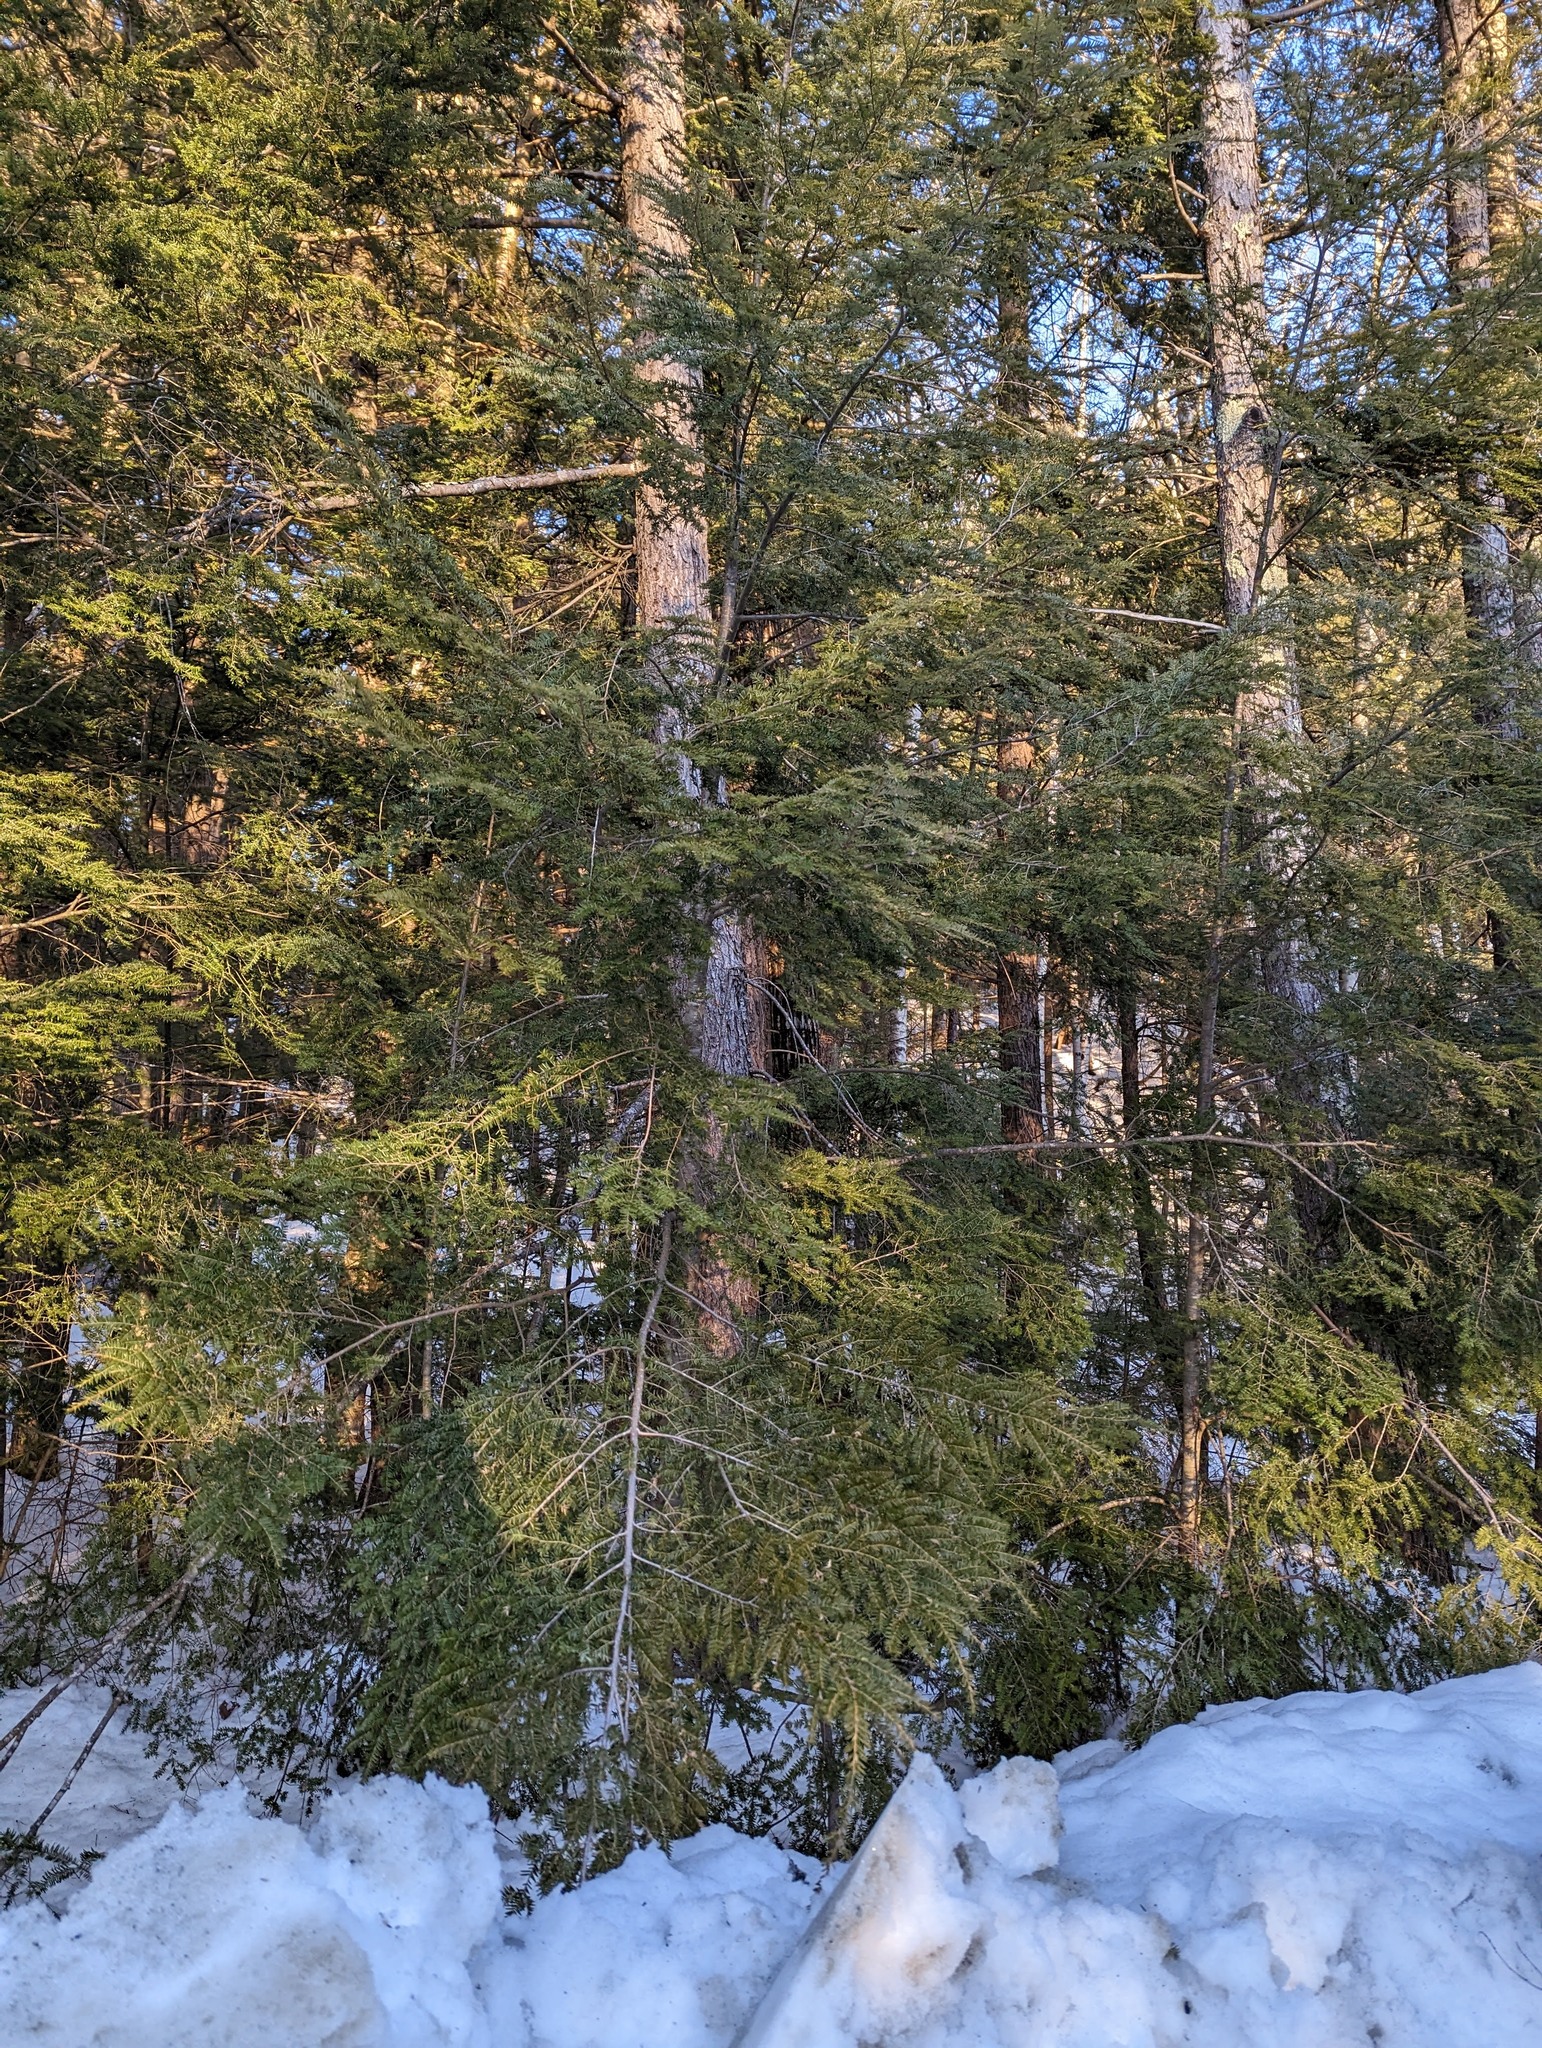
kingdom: Plantae
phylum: Tracheophyta
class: Pinopsida
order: Pinales
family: Pinaceae
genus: Tsuga
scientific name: Tsuga canadensis
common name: Eastern hemlock
